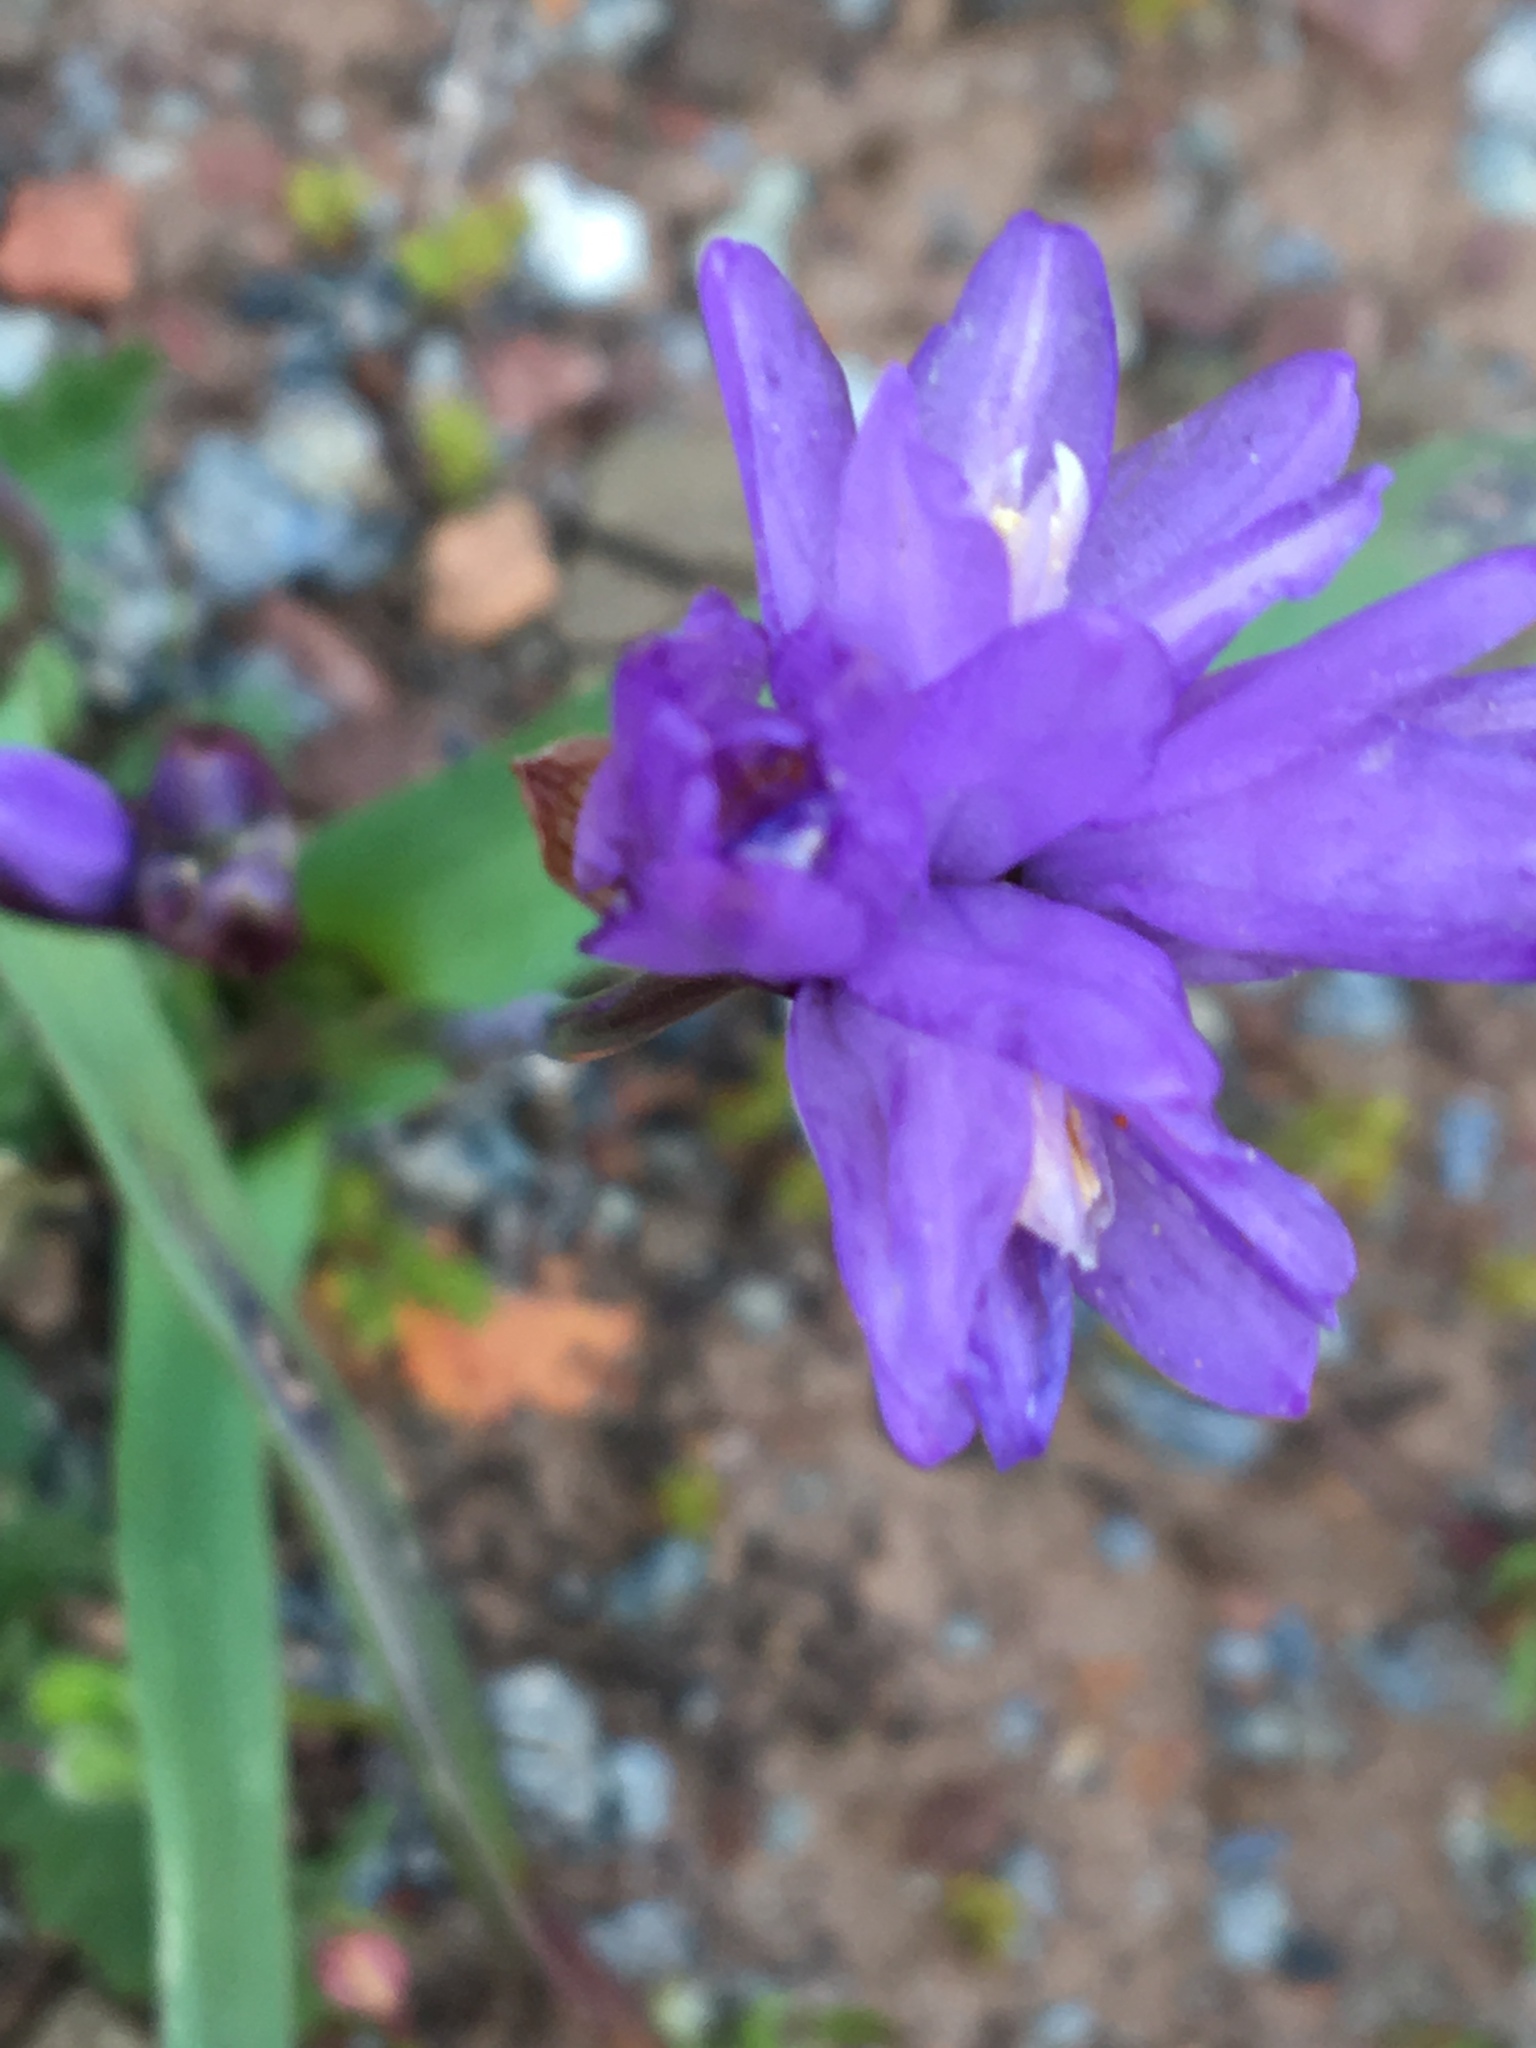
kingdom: Plantae
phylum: Tracheophyta
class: Liliopsida
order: Asparagales
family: Asparagaceae
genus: Dipterostemon
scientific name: Dipterostemon capitatus
